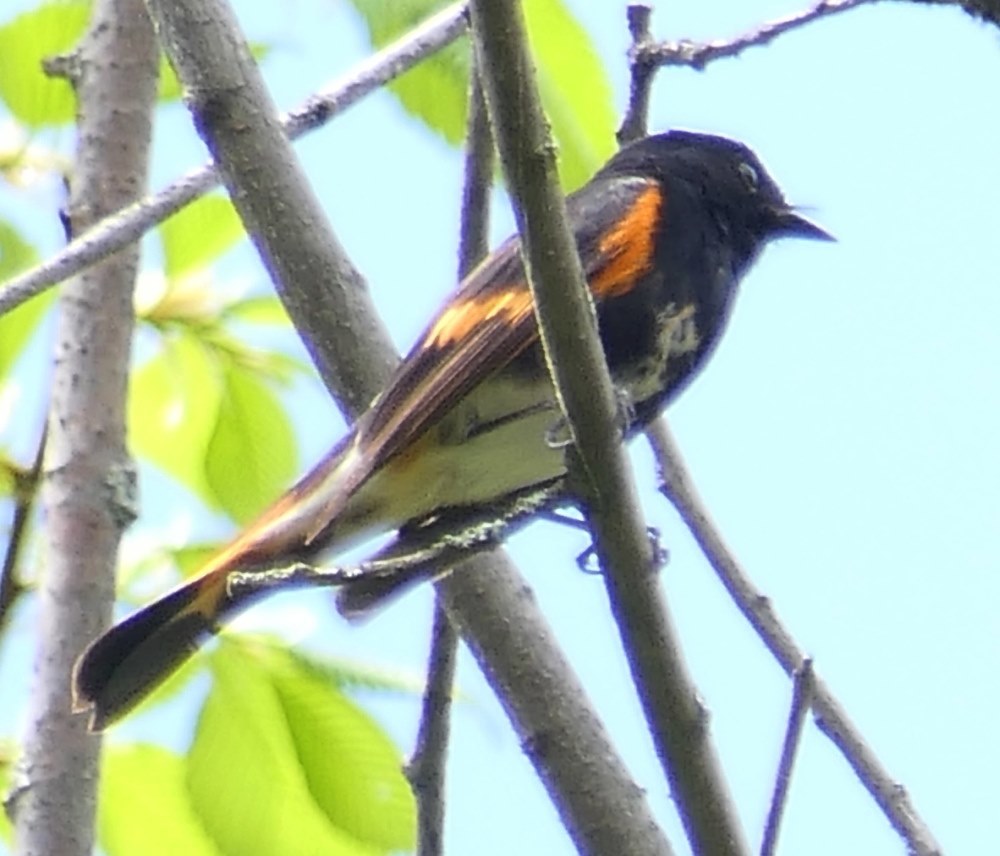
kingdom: Animalia
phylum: Chordata
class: Aves
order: Passeriformes
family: Parulidae
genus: Setophaga
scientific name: Setophaga ruticilla
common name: American redstart
